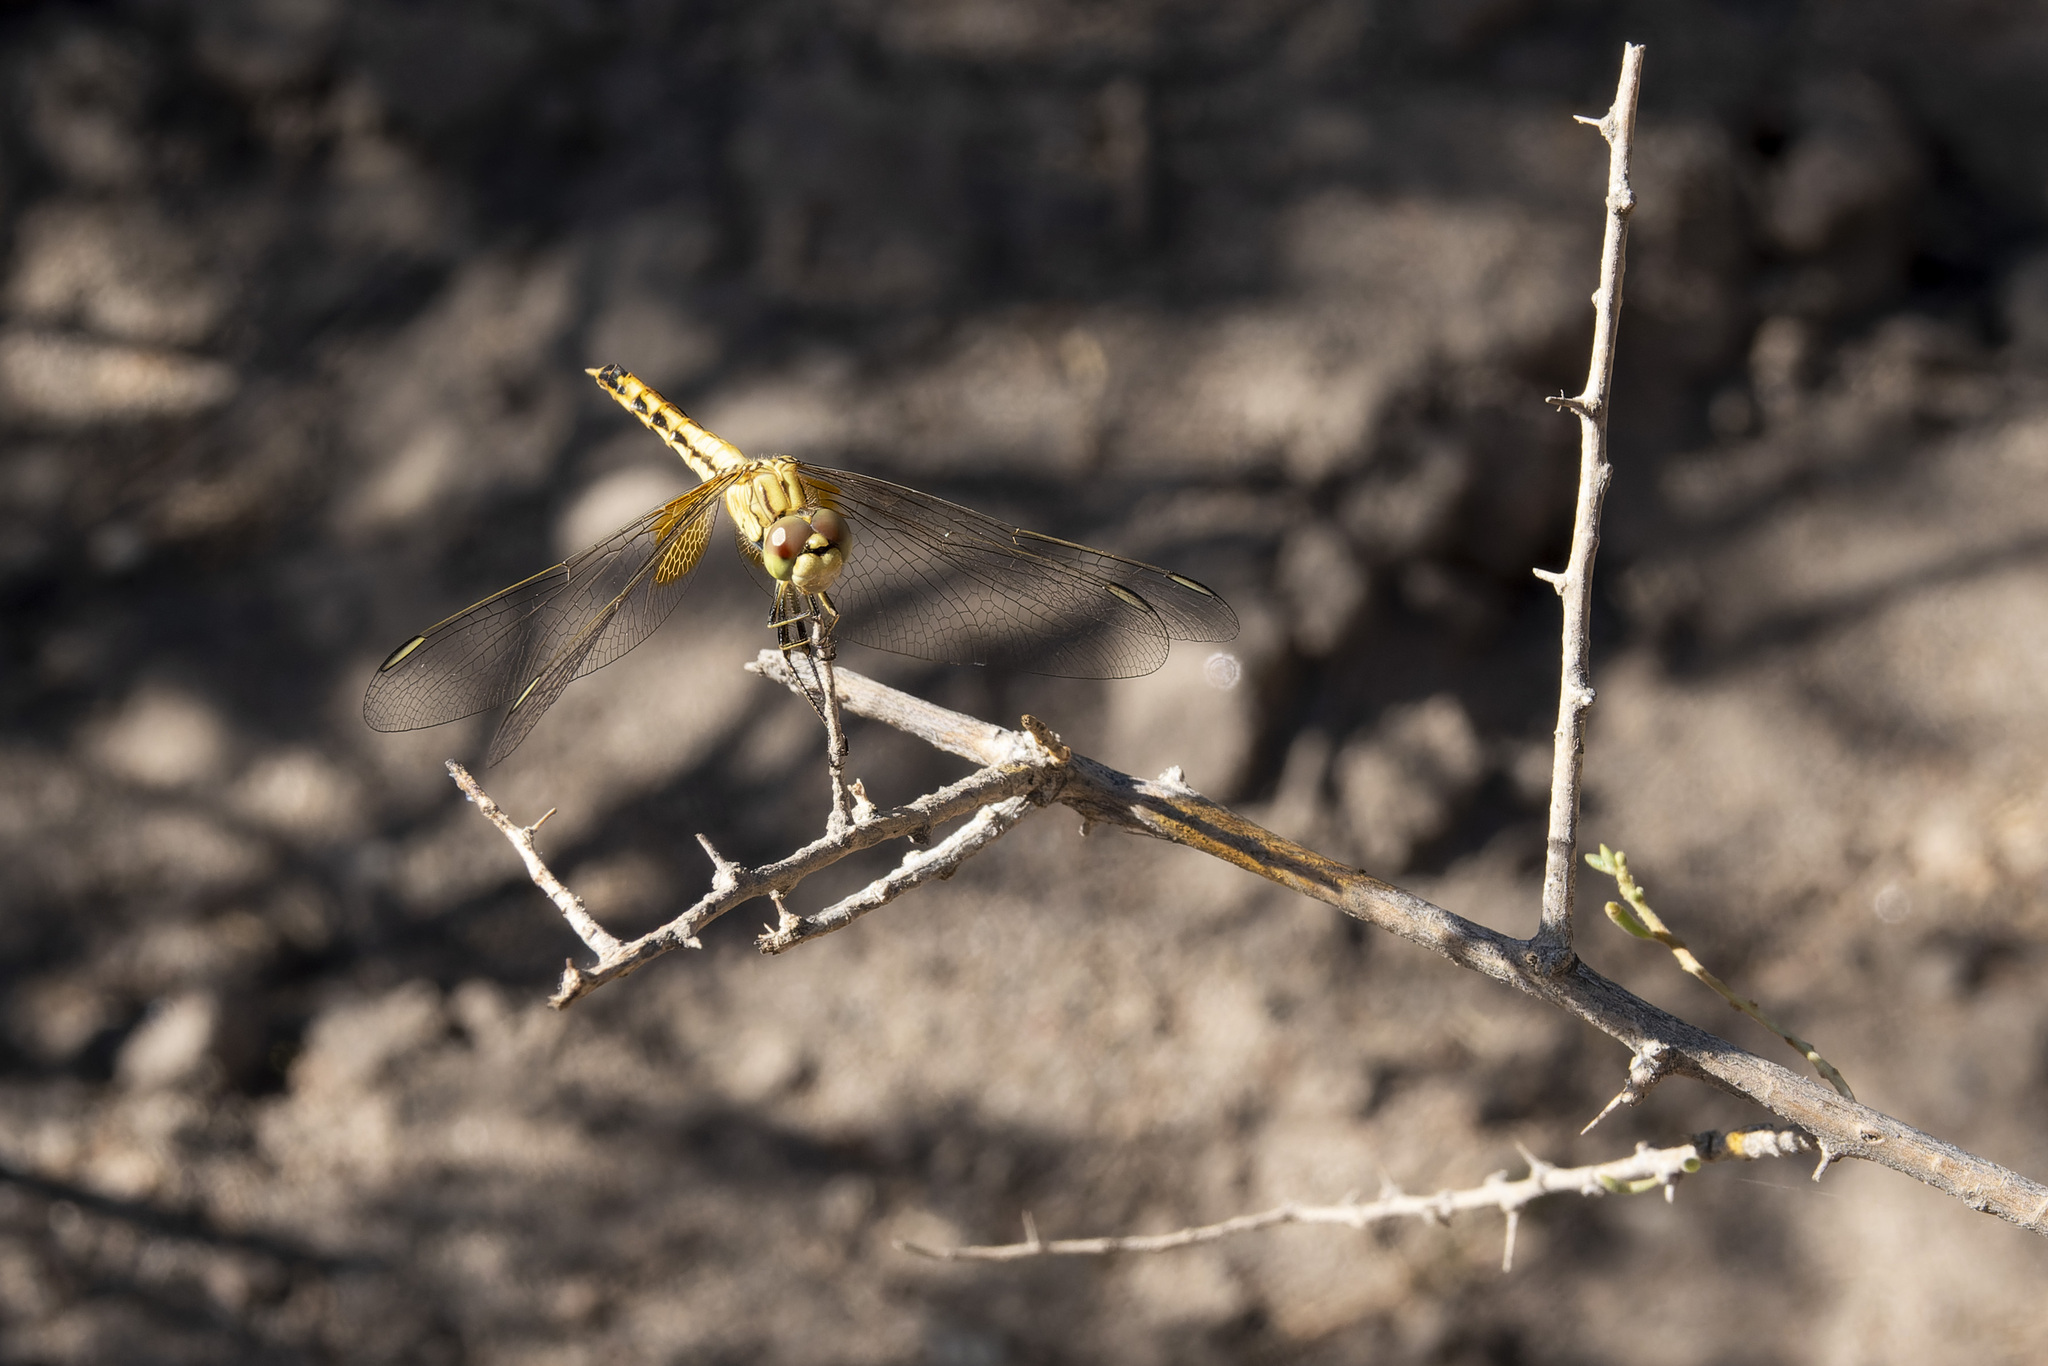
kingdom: Animalia
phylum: Arthropoda
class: Insecta
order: Odonata
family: Libellulidae
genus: Erythrodiplax
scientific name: Erythrodiplax corallina
